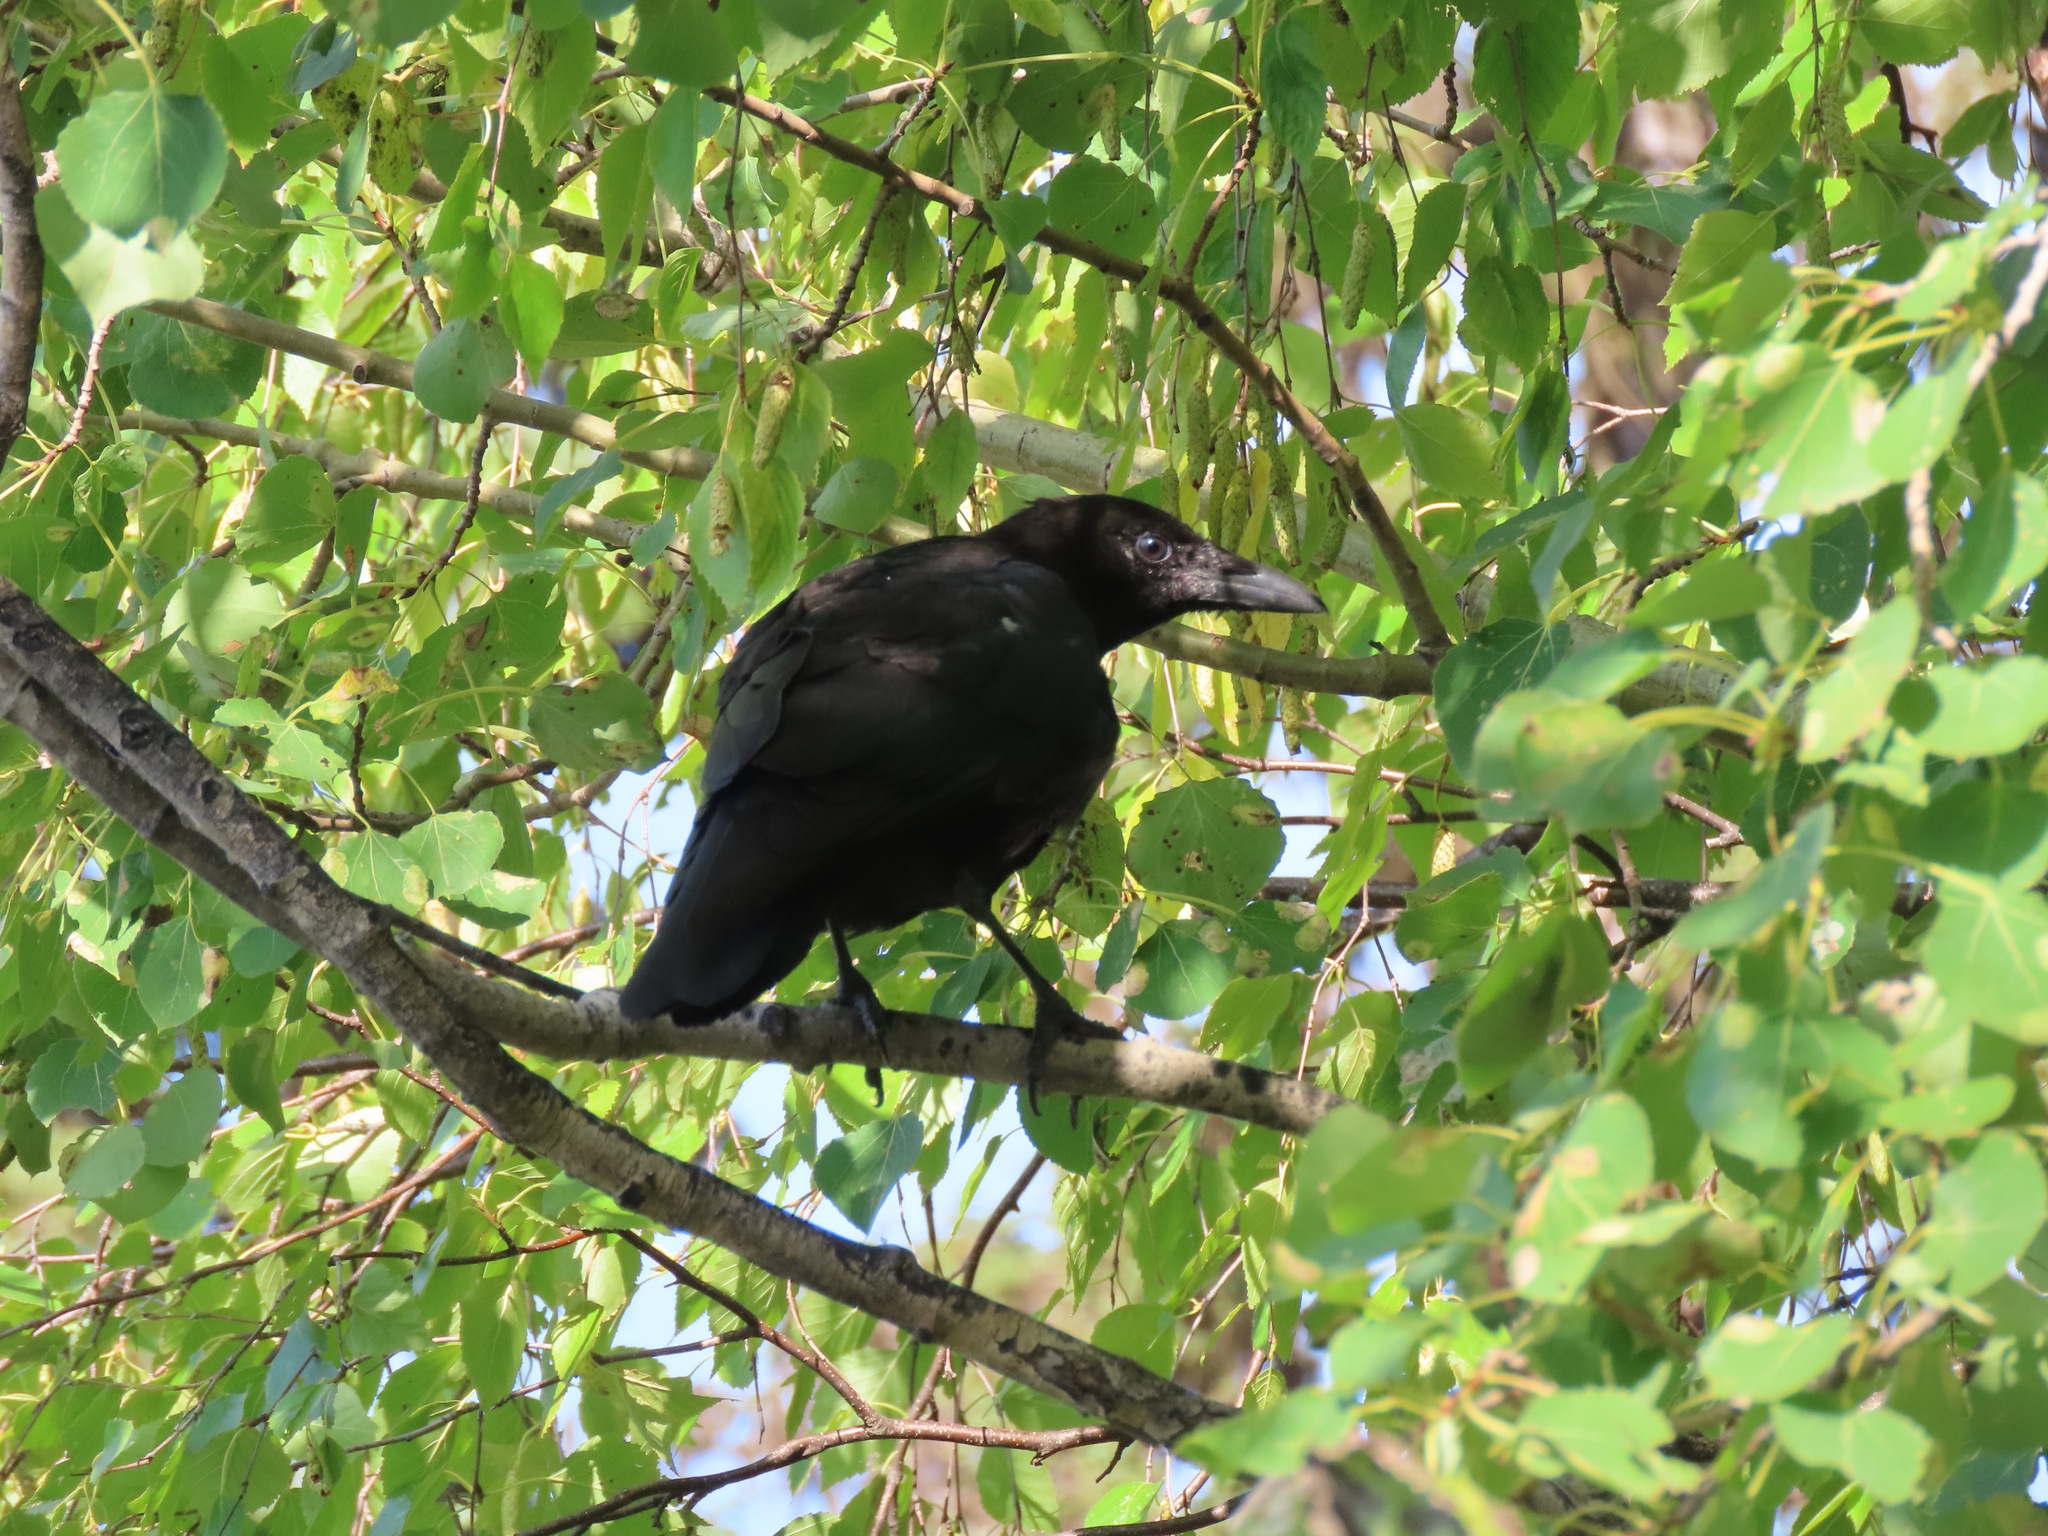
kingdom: Animalia
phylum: Chordata
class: Aves
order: Passeriformes
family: Corvidae
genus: Corvus
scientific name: Corvus brachyrhynchos
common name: American crow
